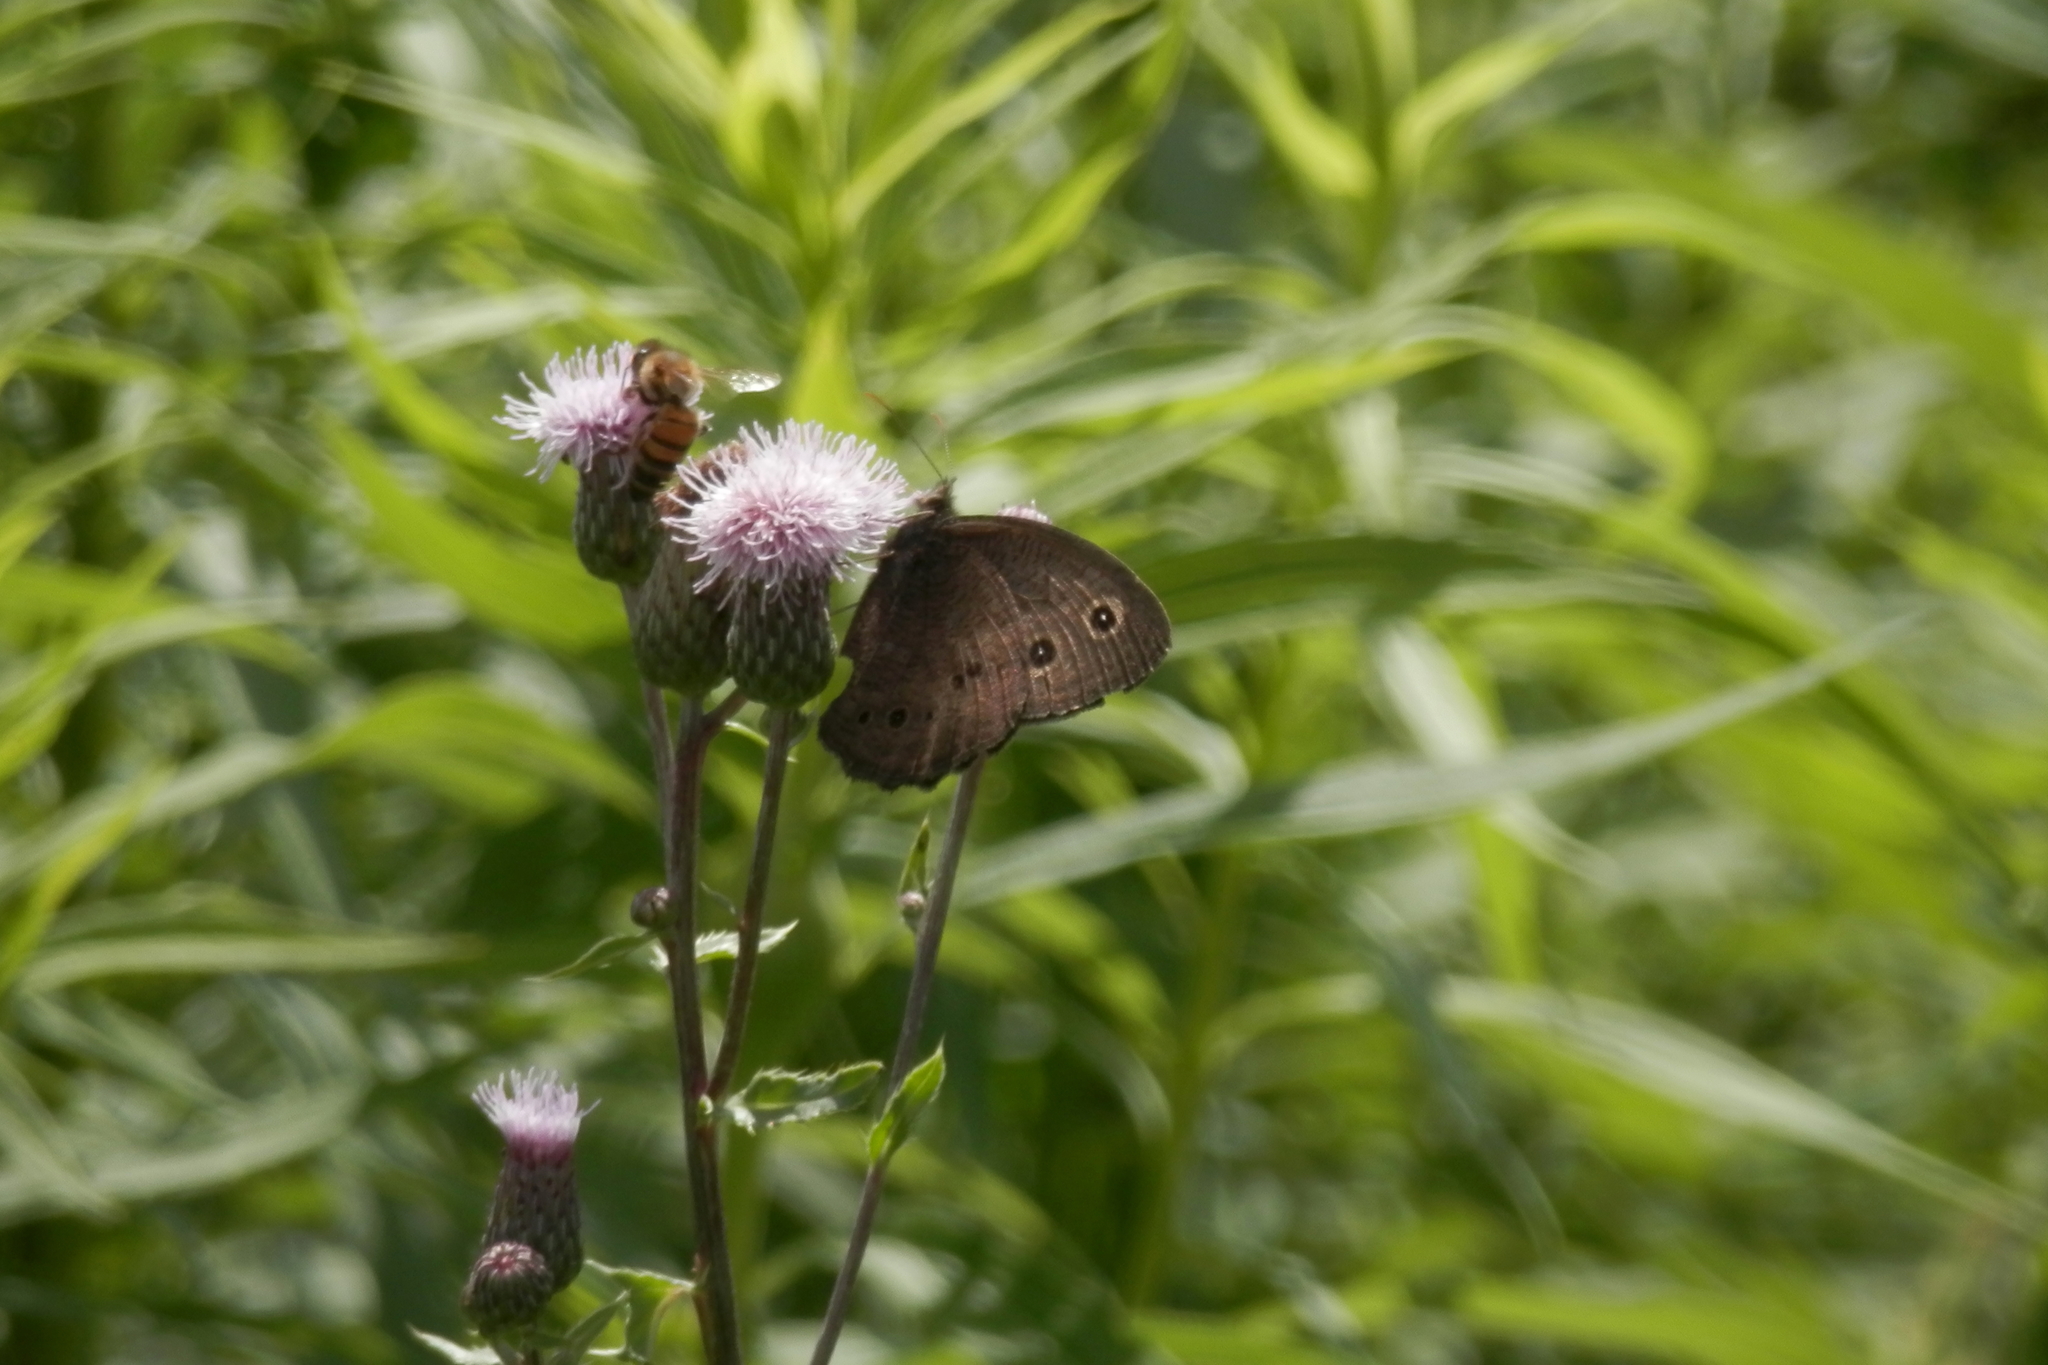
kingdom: Animalia
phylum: Arthropoda
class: Insecta
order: Hymenoptera
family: Apidae
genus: Apis
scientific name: Apis mellifera
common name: Honey bee
